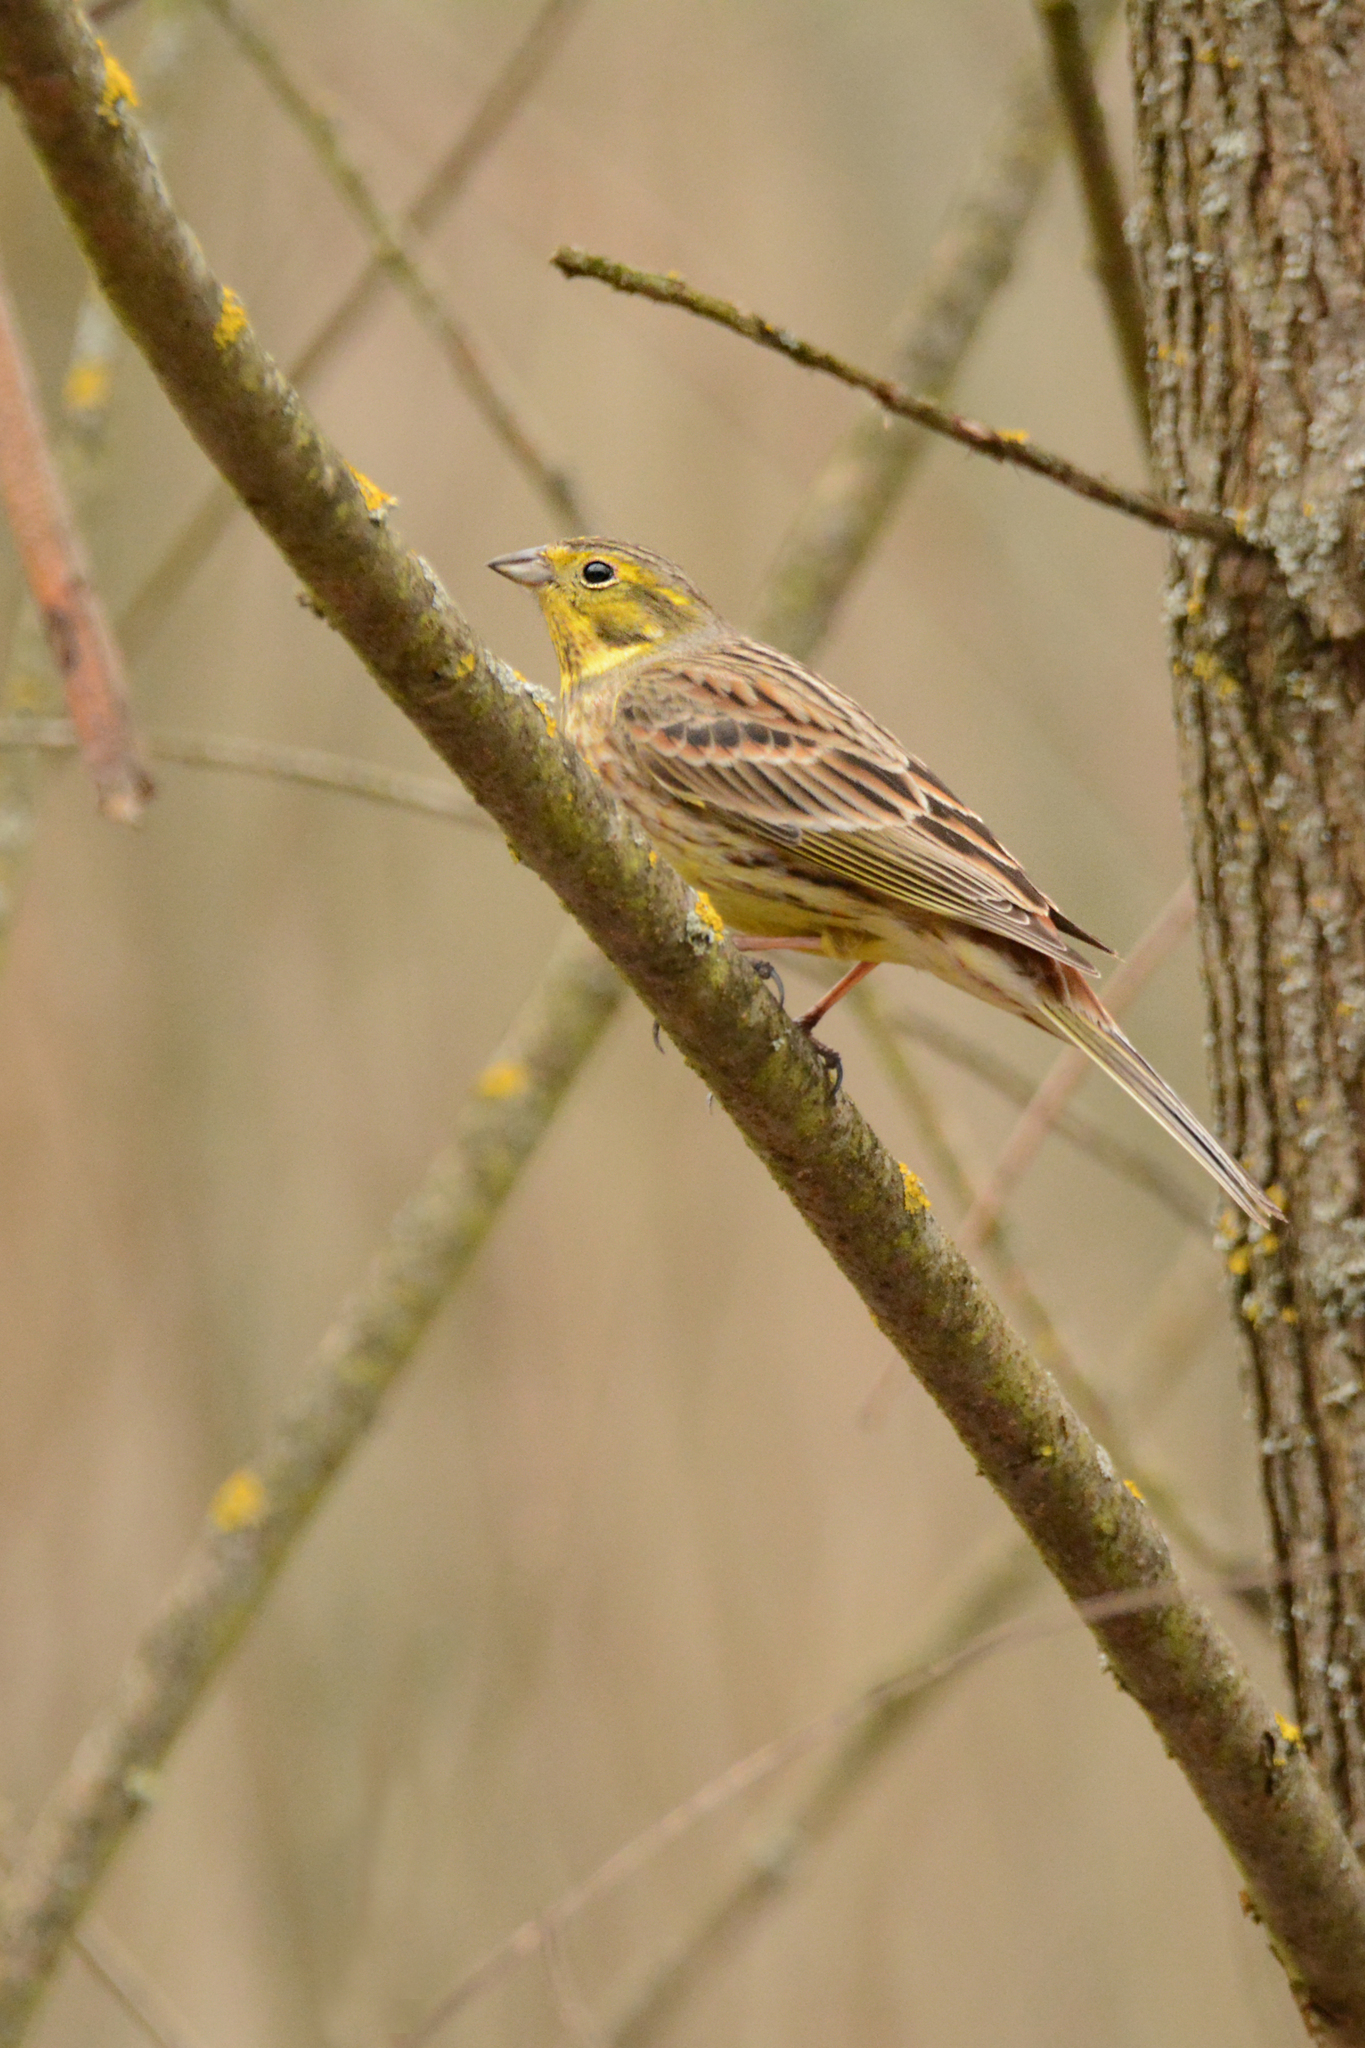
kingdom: Animalia
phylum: Chordata
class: Aves
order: Passeriformes
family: Emberizidae
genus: Emberiza
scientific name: Emberiza citrinella
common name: Yellowhammer
